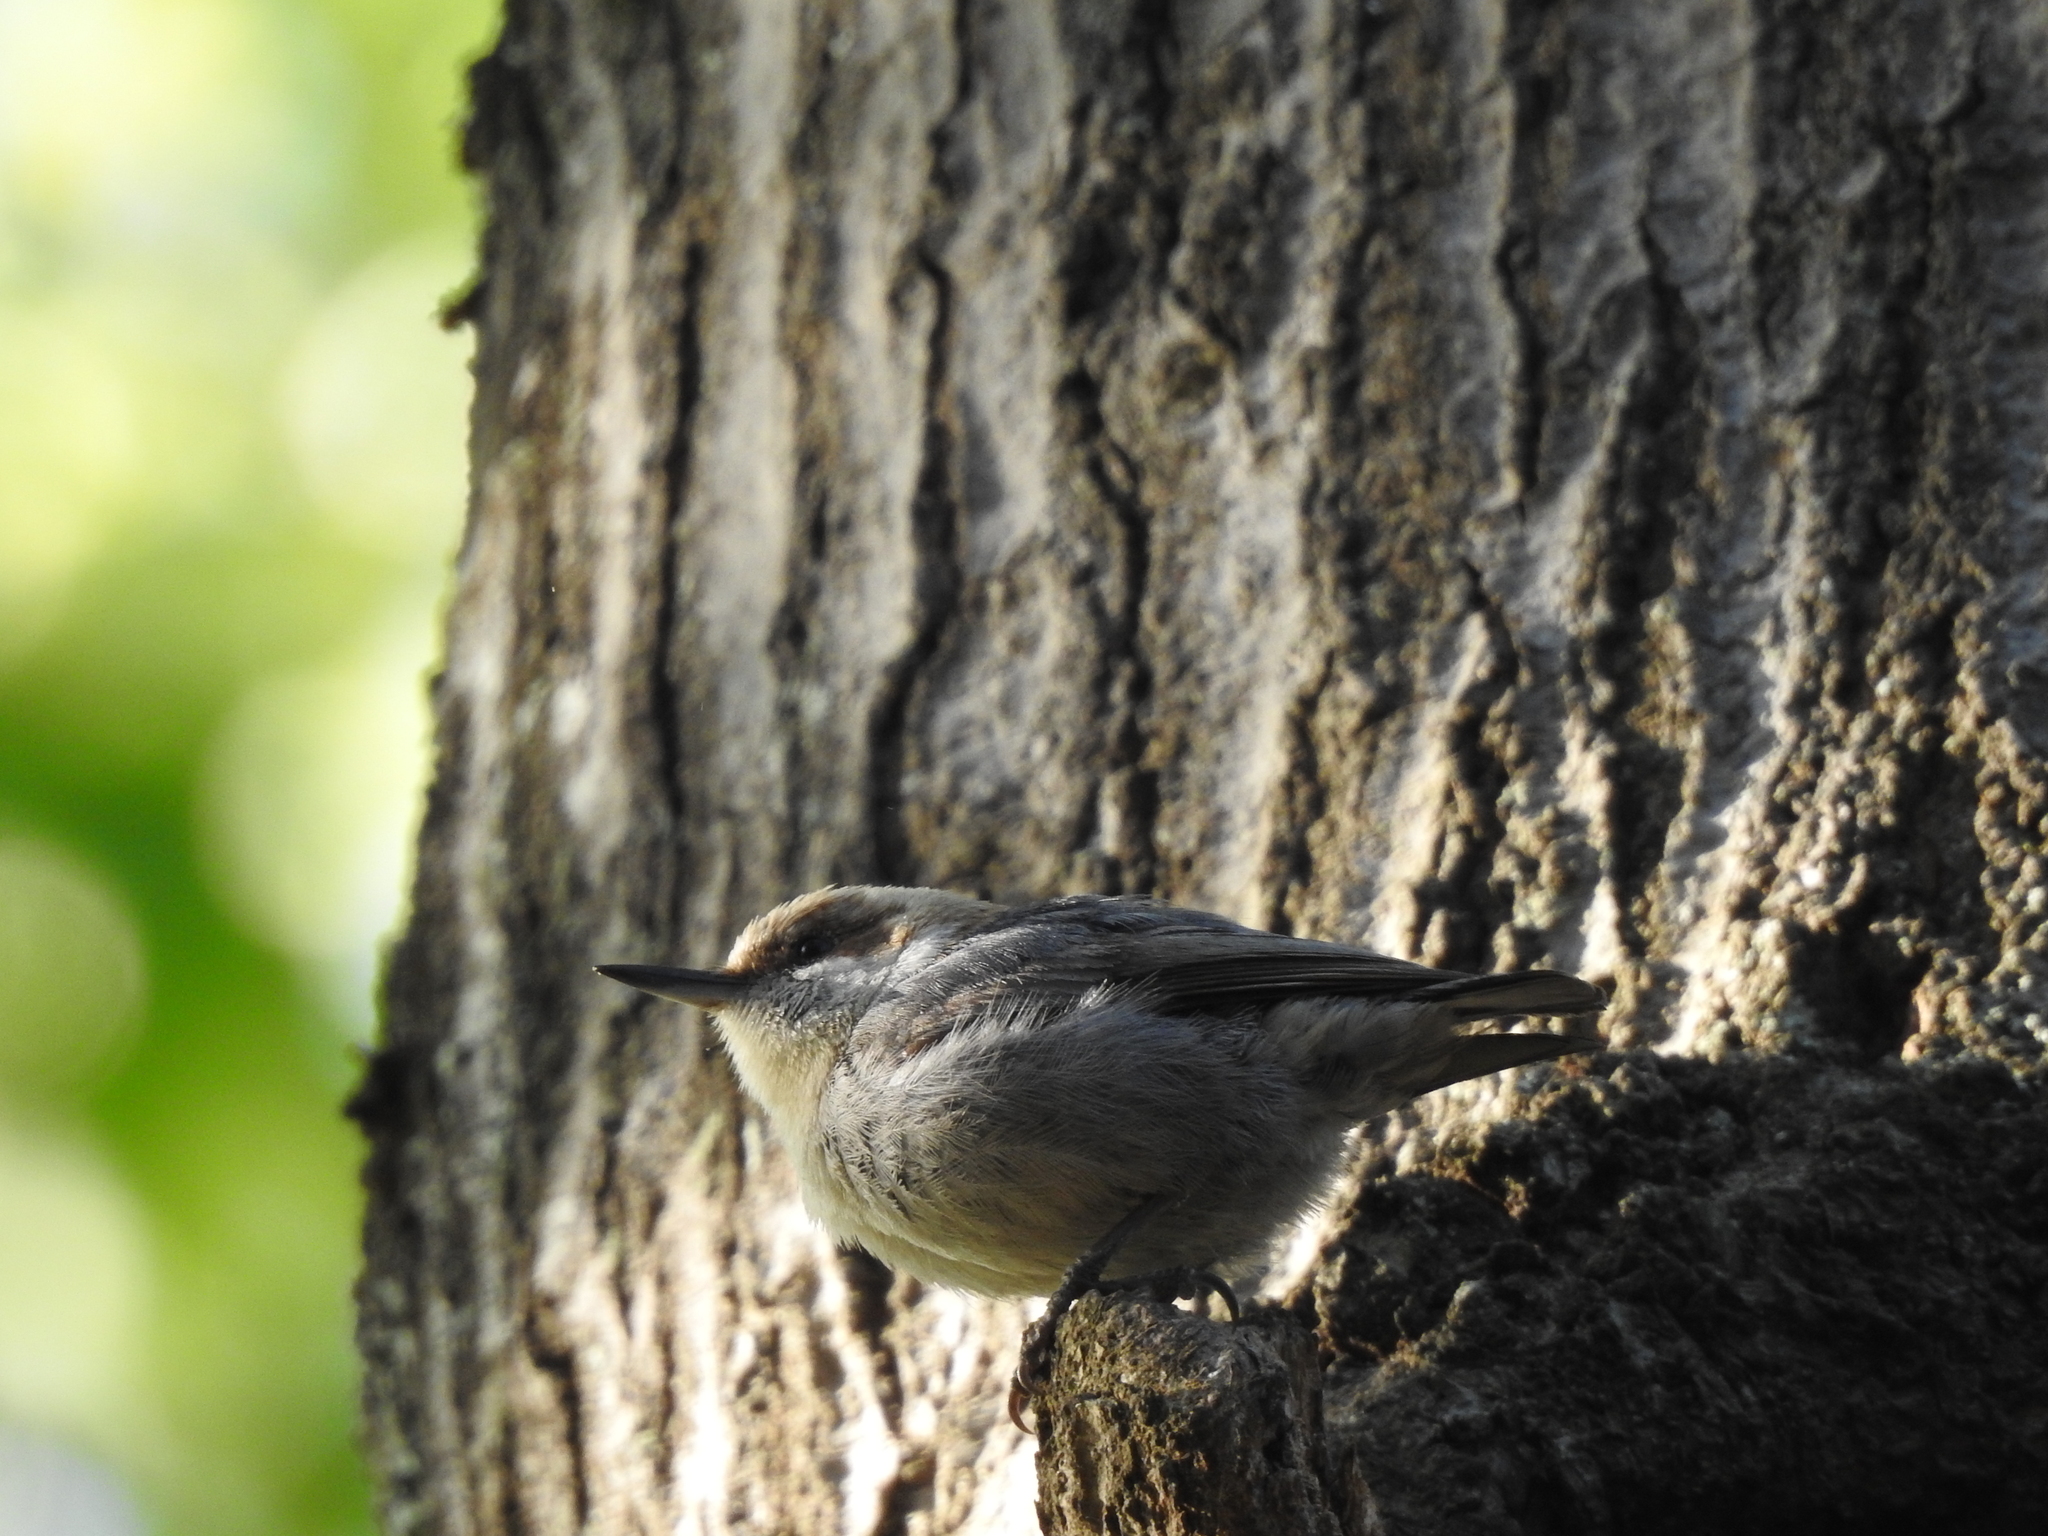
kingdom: Animalia
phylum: Chordata
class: Aves
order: Passeriformes
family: Sittidae
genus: Sitta
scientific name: Sitta pusilla
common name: Brown-headed nuthatch
